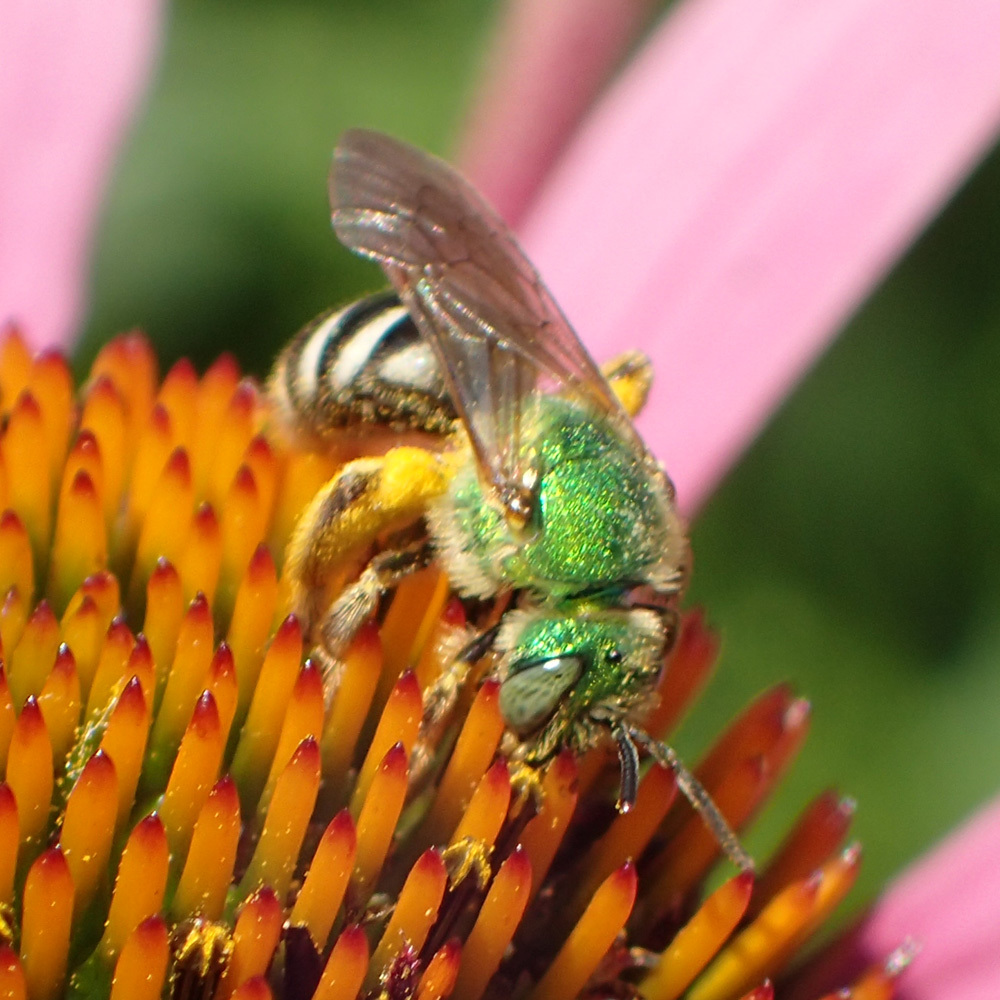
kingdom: Animalia
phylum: Arthropoda
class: Insecta
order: Hymenoptera
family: Halictidae
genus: Agapostemon
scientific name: Agapostemon virescens
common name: Bicolored striped sweat bee
